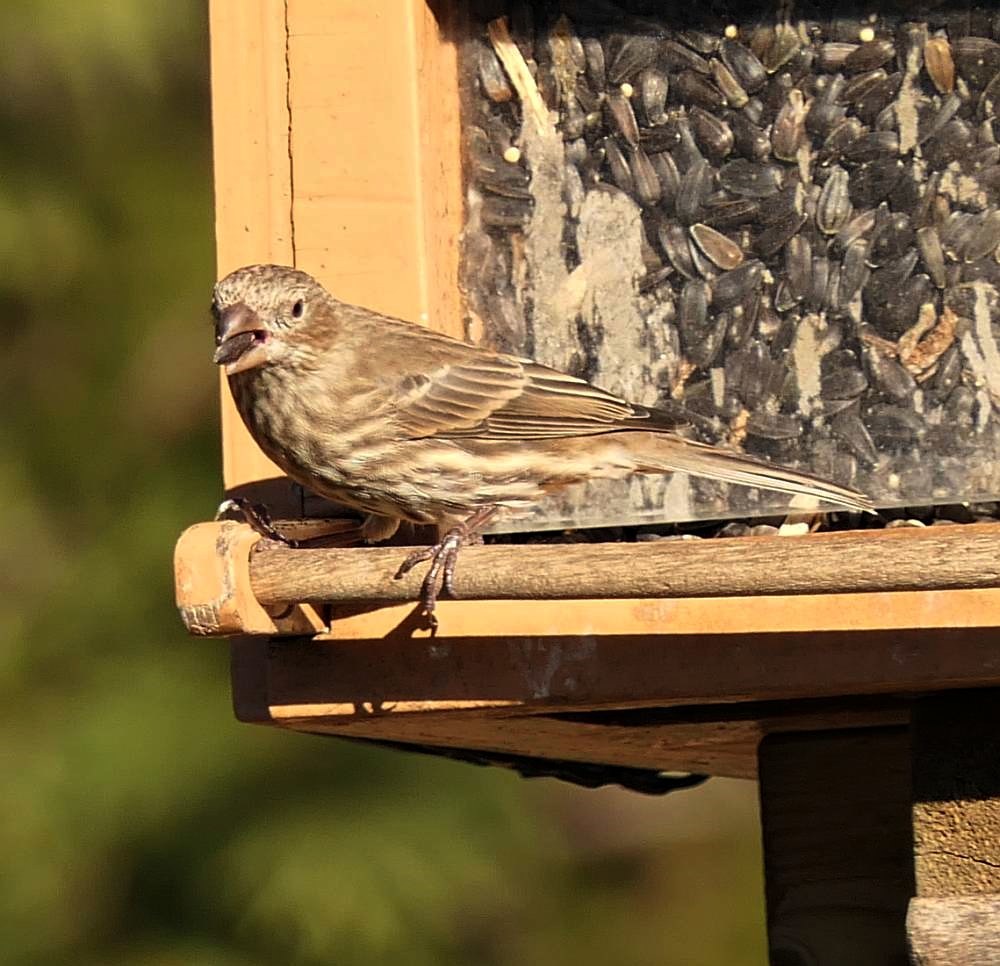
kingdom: Animalia
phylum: Chordata
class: Aves
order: Passeriformes
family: Fringillidae
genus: Haemorhous
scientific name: Haemorhous mexicanus
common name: House finch
